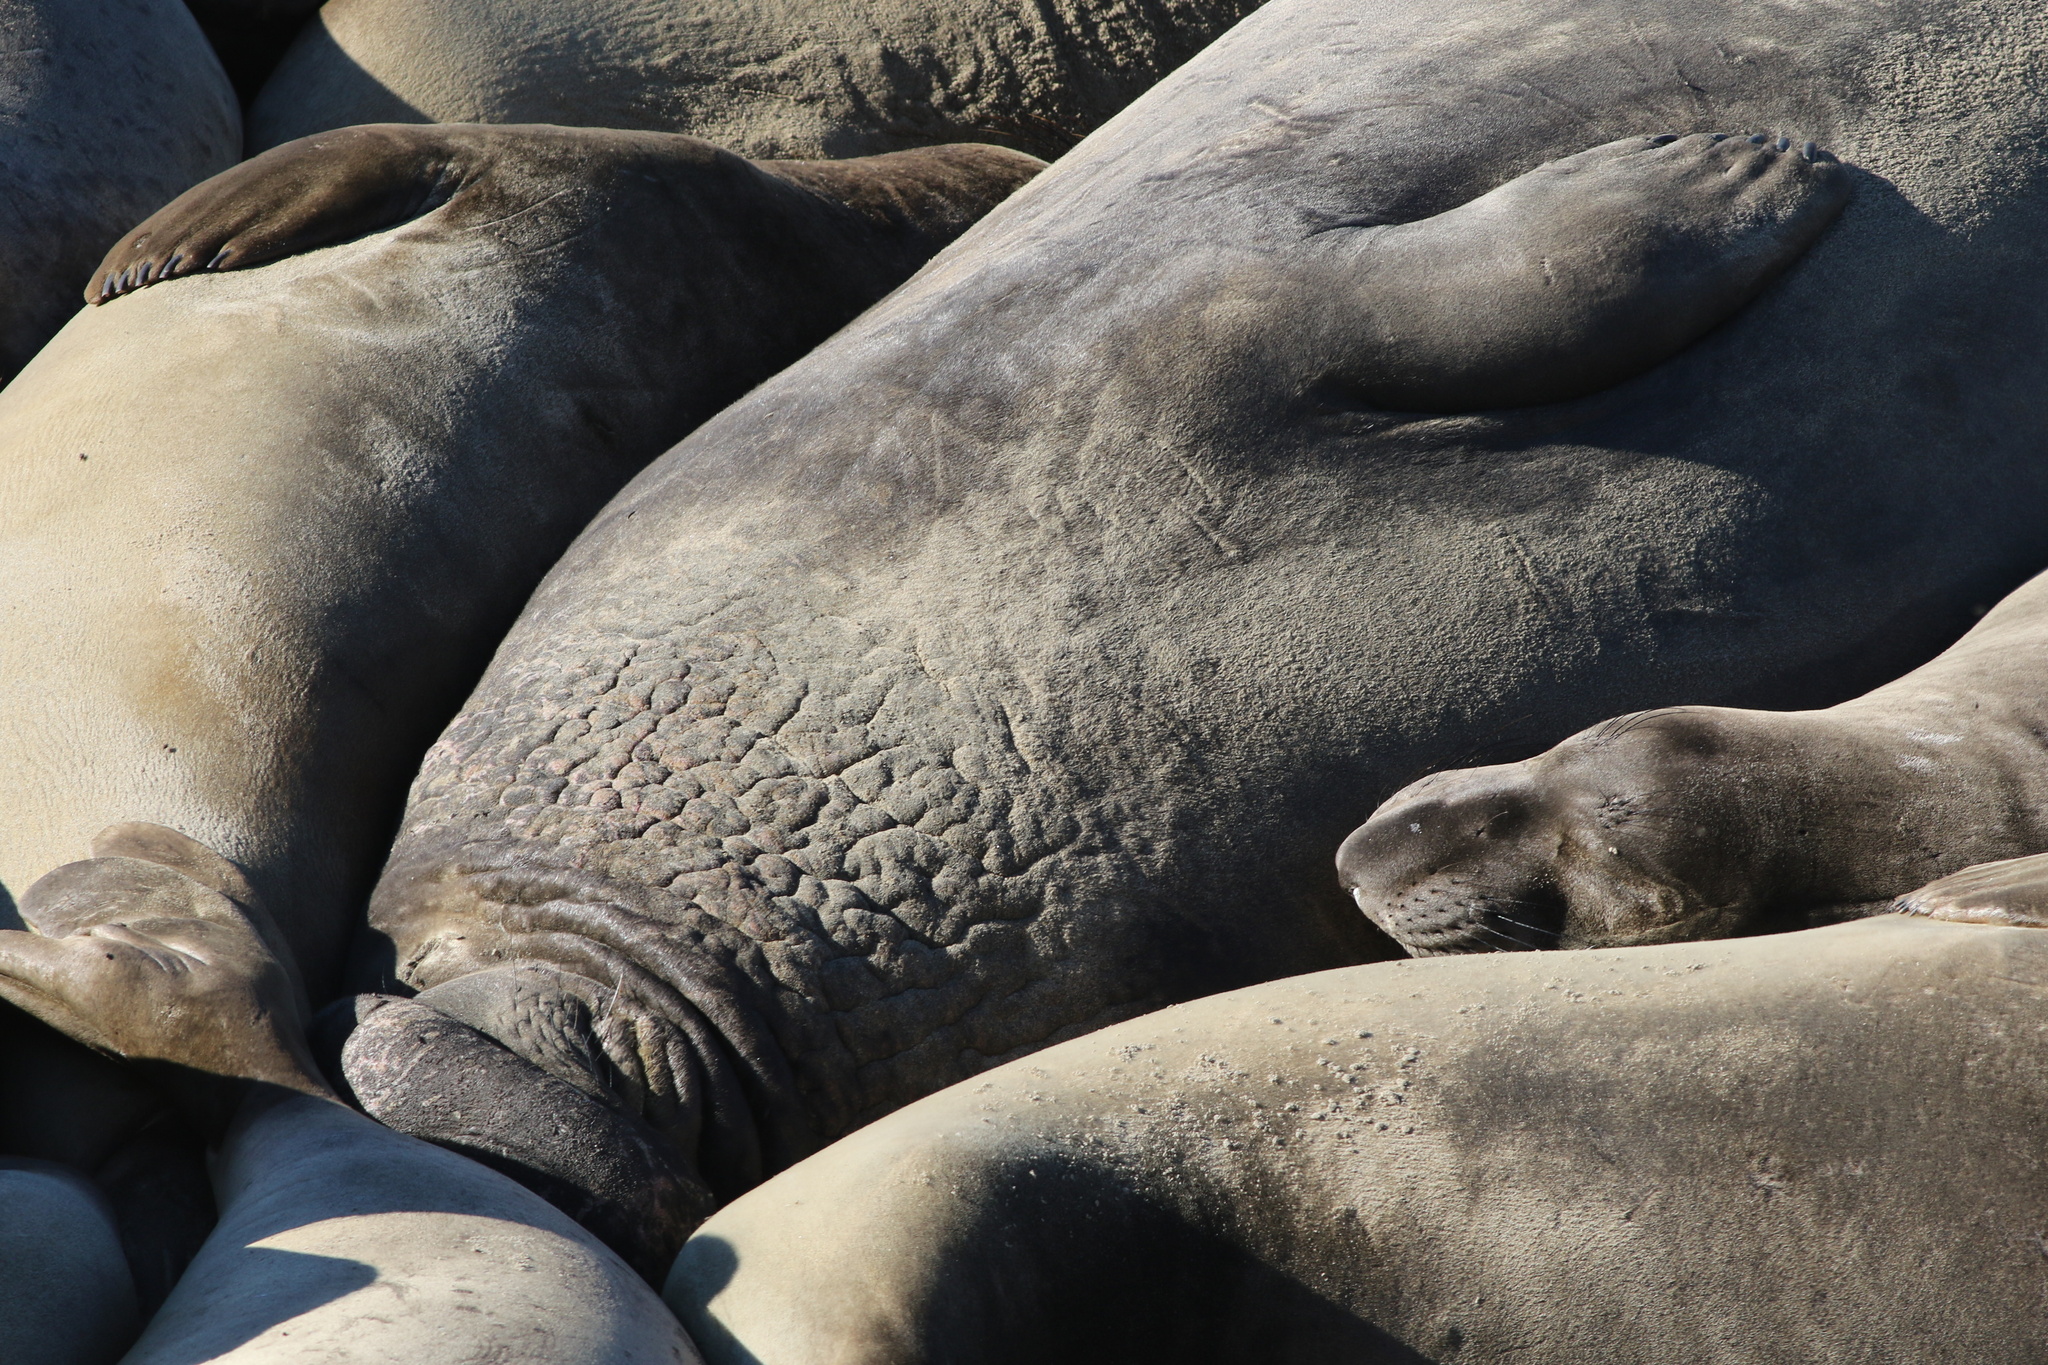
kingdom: Animalia
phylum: Chordata
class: Mammalia
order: Carnivora
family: Phocidae
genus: Mirounga
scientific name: Mirounga angustirostris
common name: Northern elephant seal
